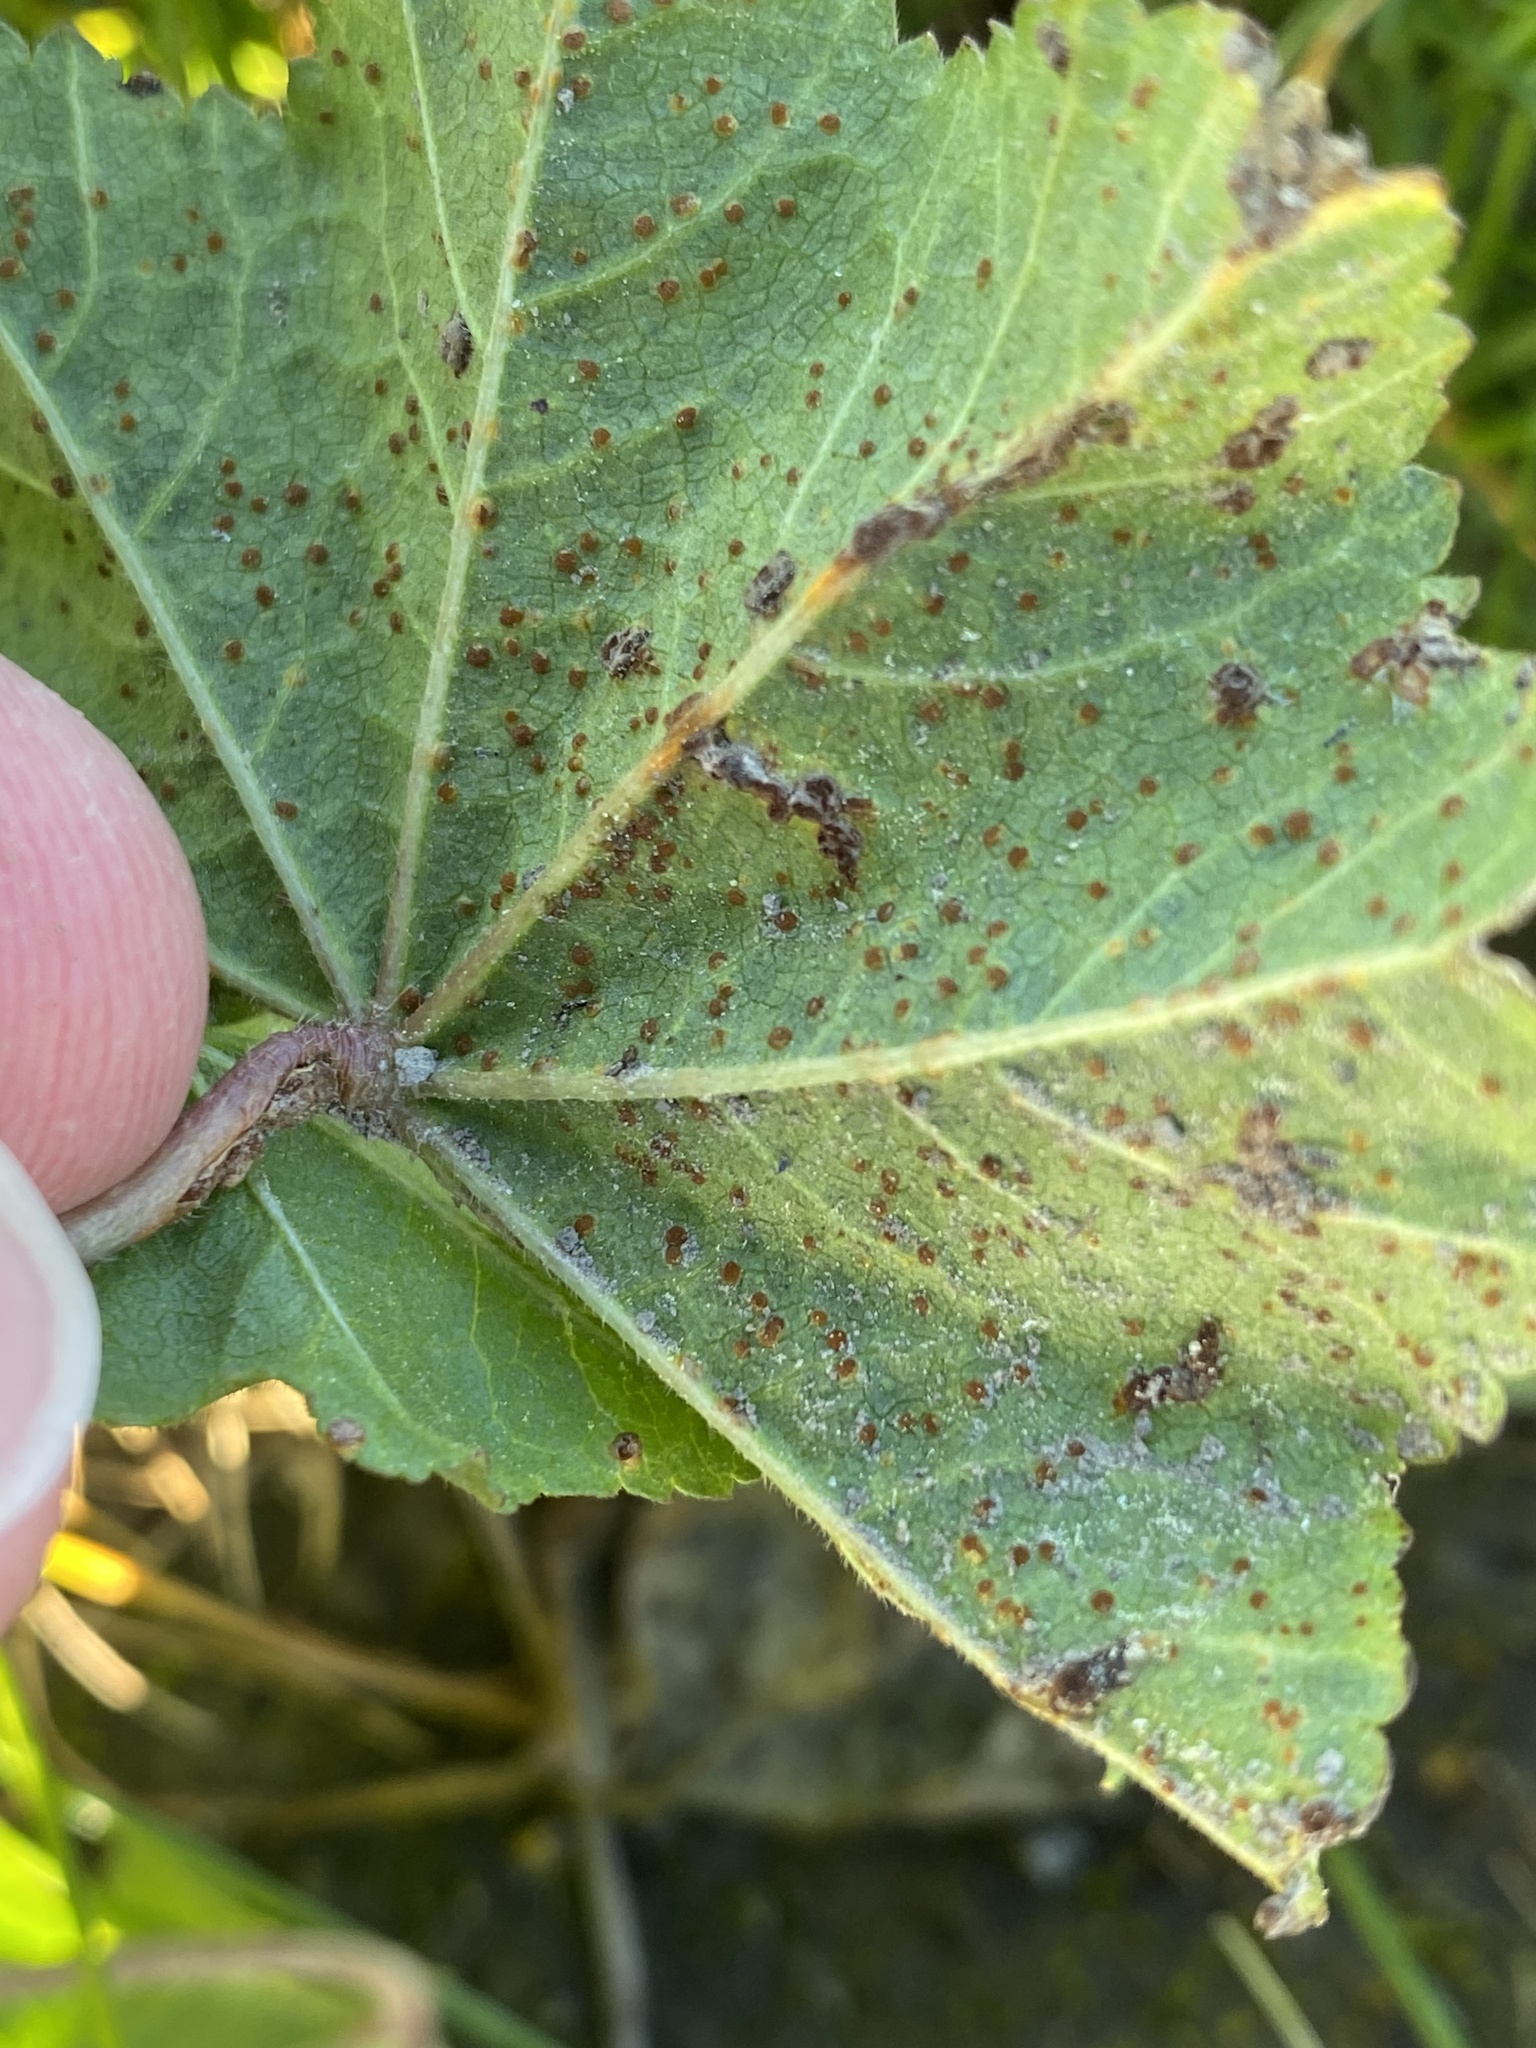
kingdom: Fungi
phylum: Basidiomycota
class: Pucciniomycetes
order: Pucciniales
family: Pucciniaceae
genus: Puccinia
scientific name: Puccinia malvacearum
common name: Hollyhock rust
